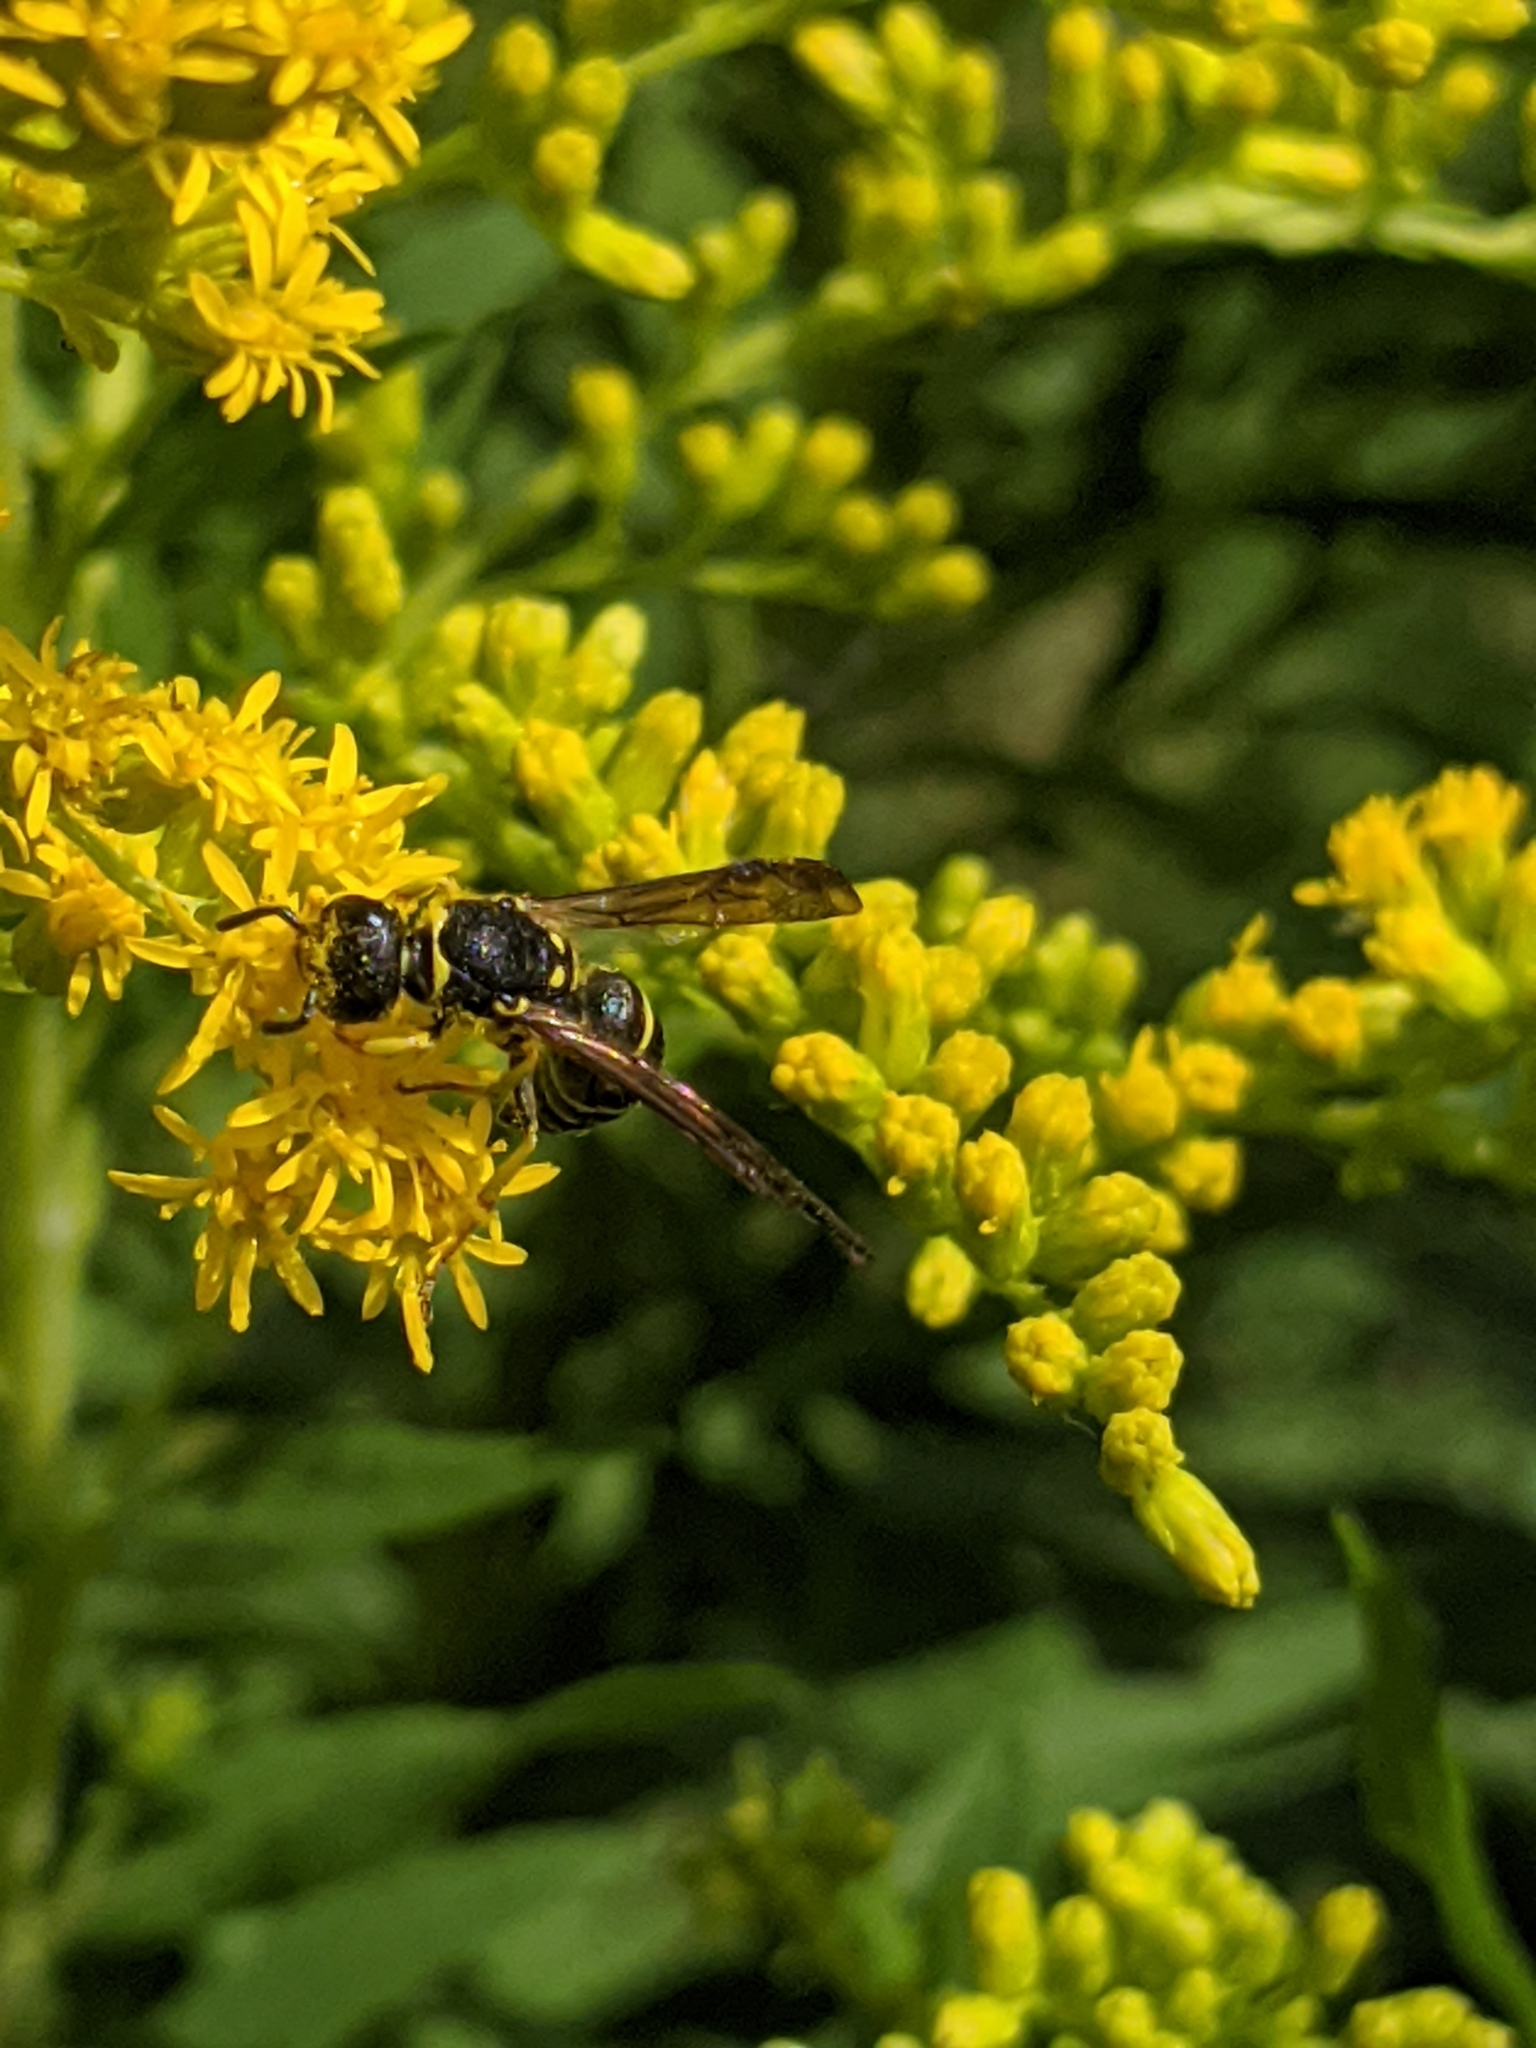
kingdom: Animalia
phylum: Arthropoda
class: Insecta
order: Hymenoptera
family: Vespidae
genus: Ancistrocerus
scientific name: Ancistrocerus adiabatus
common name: Bramble mason wasp
